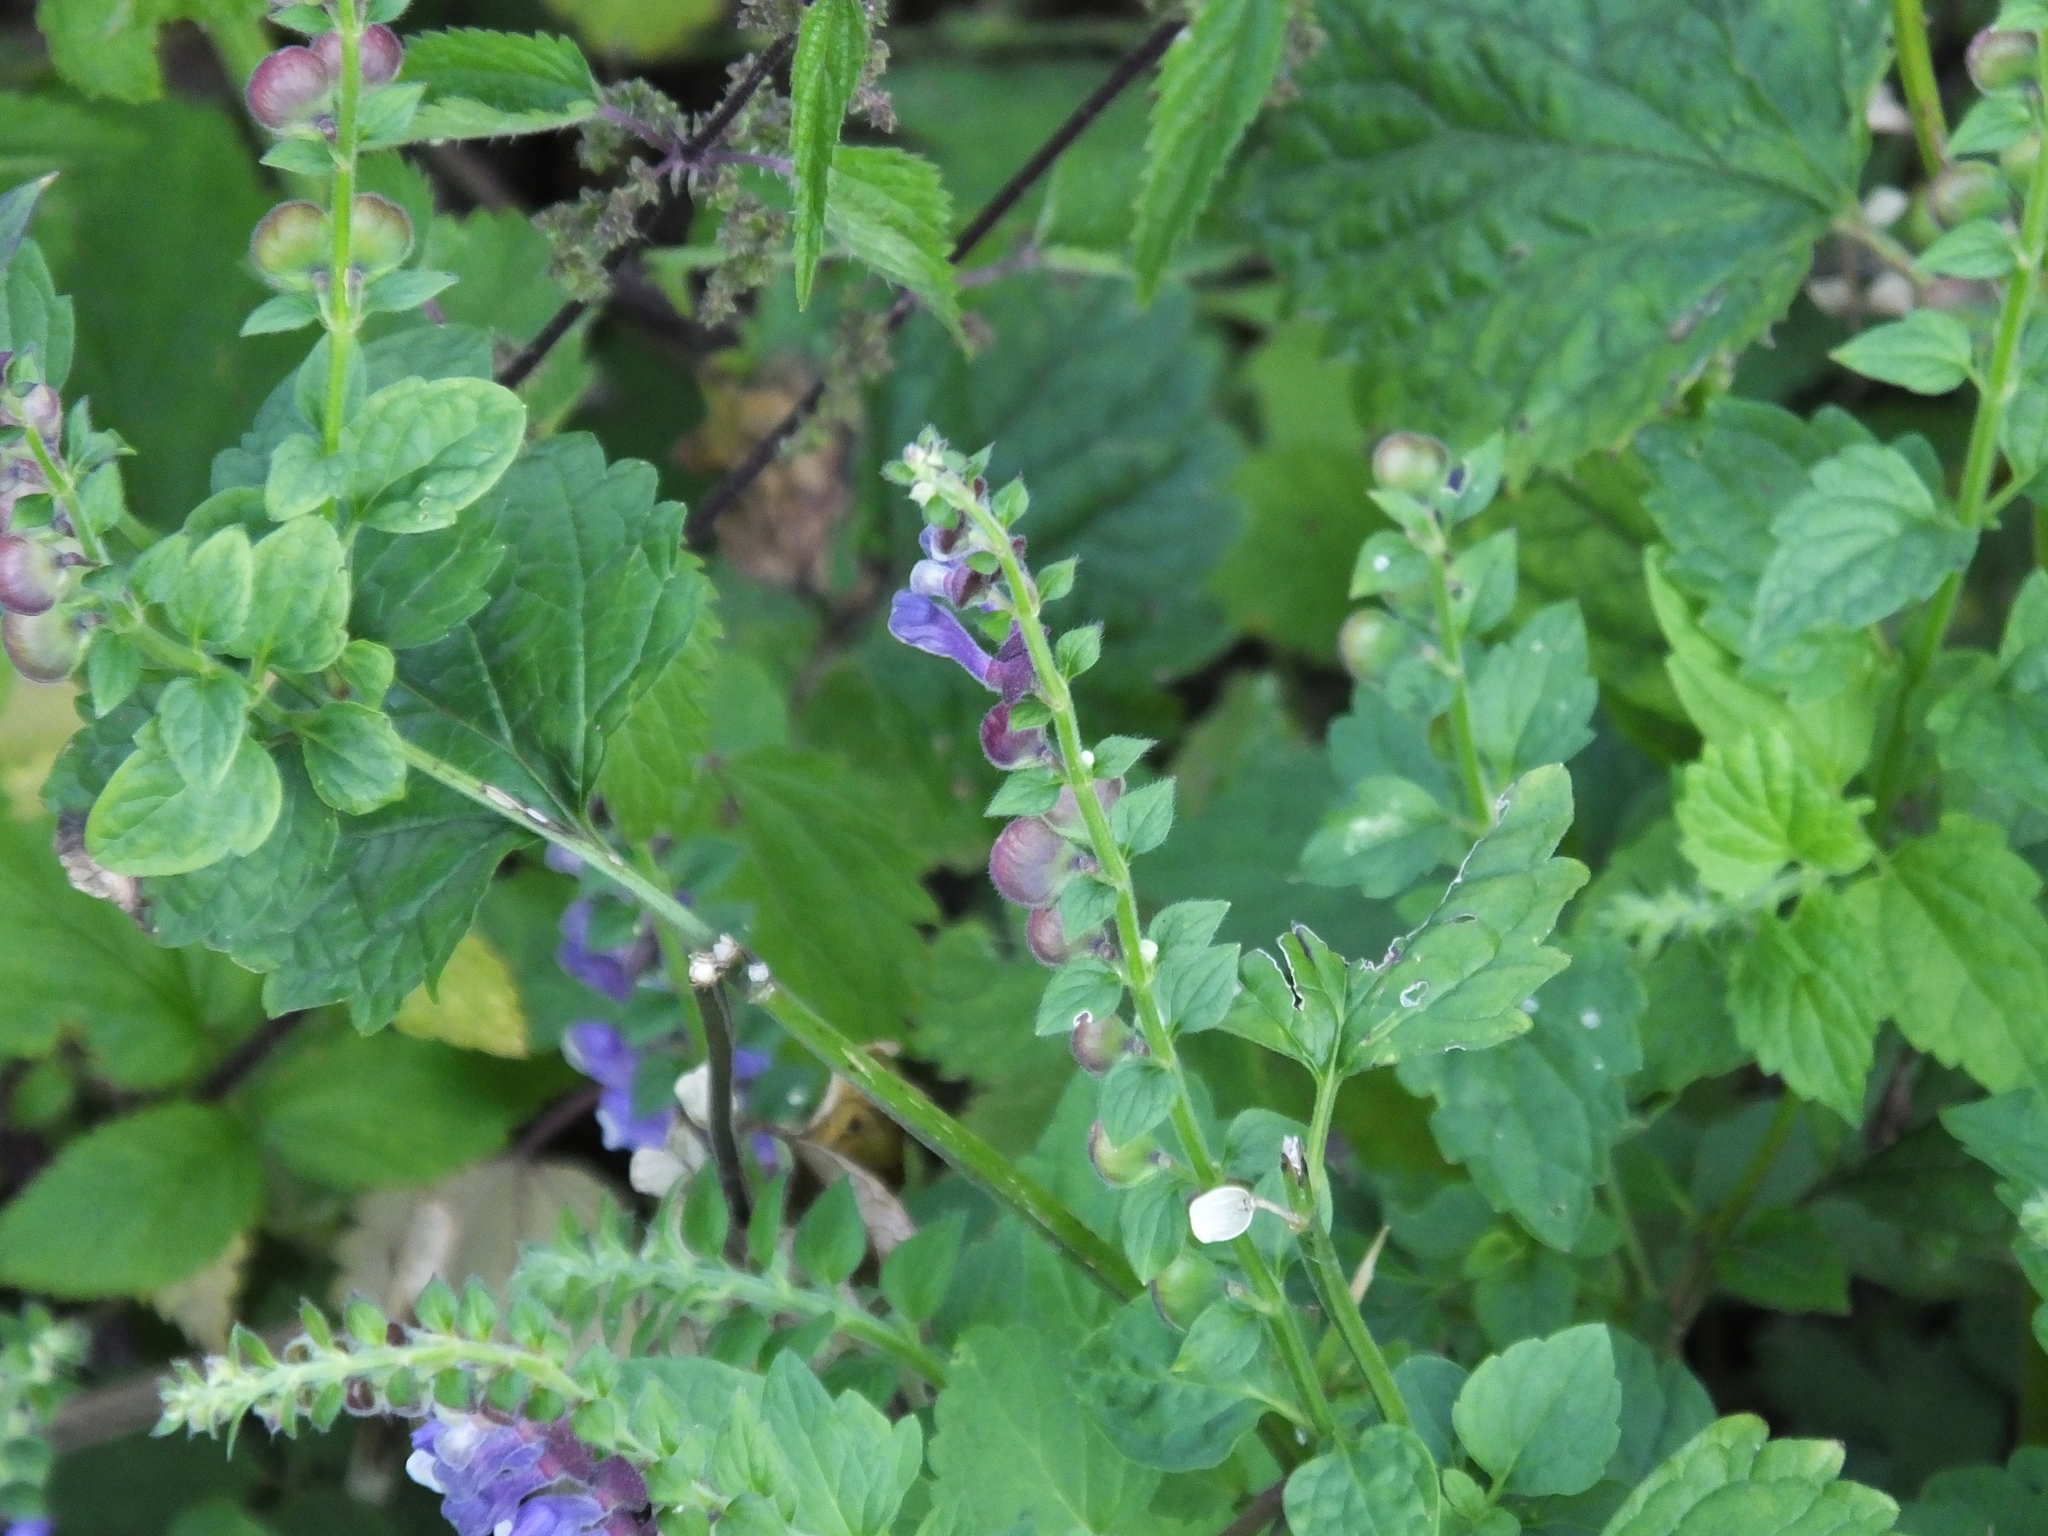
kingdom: Plantae
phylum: Tracheophyta
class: Magnoliopsida
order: Lamiales
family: Lamiaceae
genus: Scutellaria
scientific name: Scutellaria altissima
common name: Somerset skullcap
